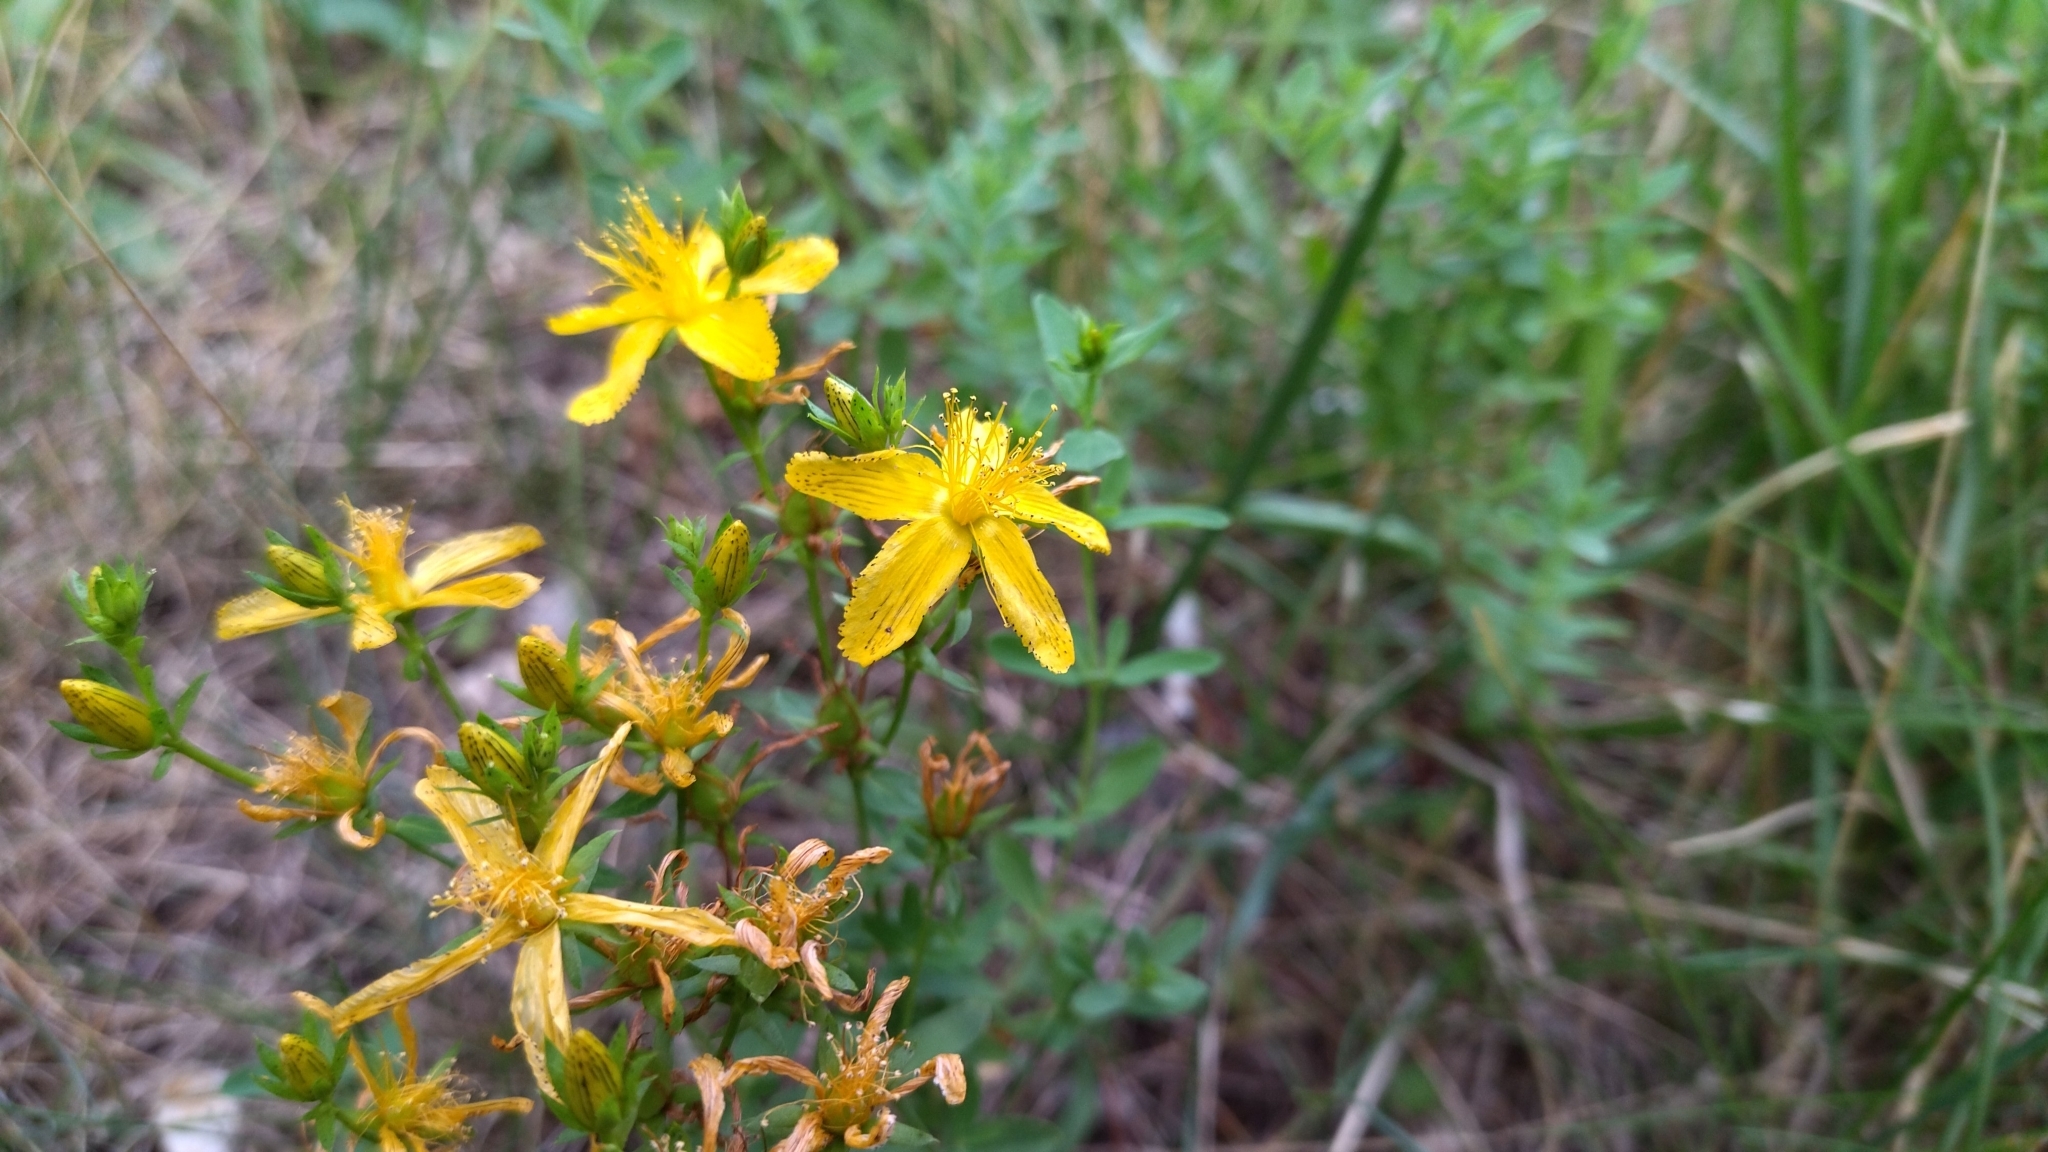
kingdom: Plantae
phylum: Tracheophyta
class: Magnoliopsida
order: Malpighiales
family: Hypericaceae
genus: Hypericum
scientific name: Hypericum perforatum
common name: Common st. johnswort
